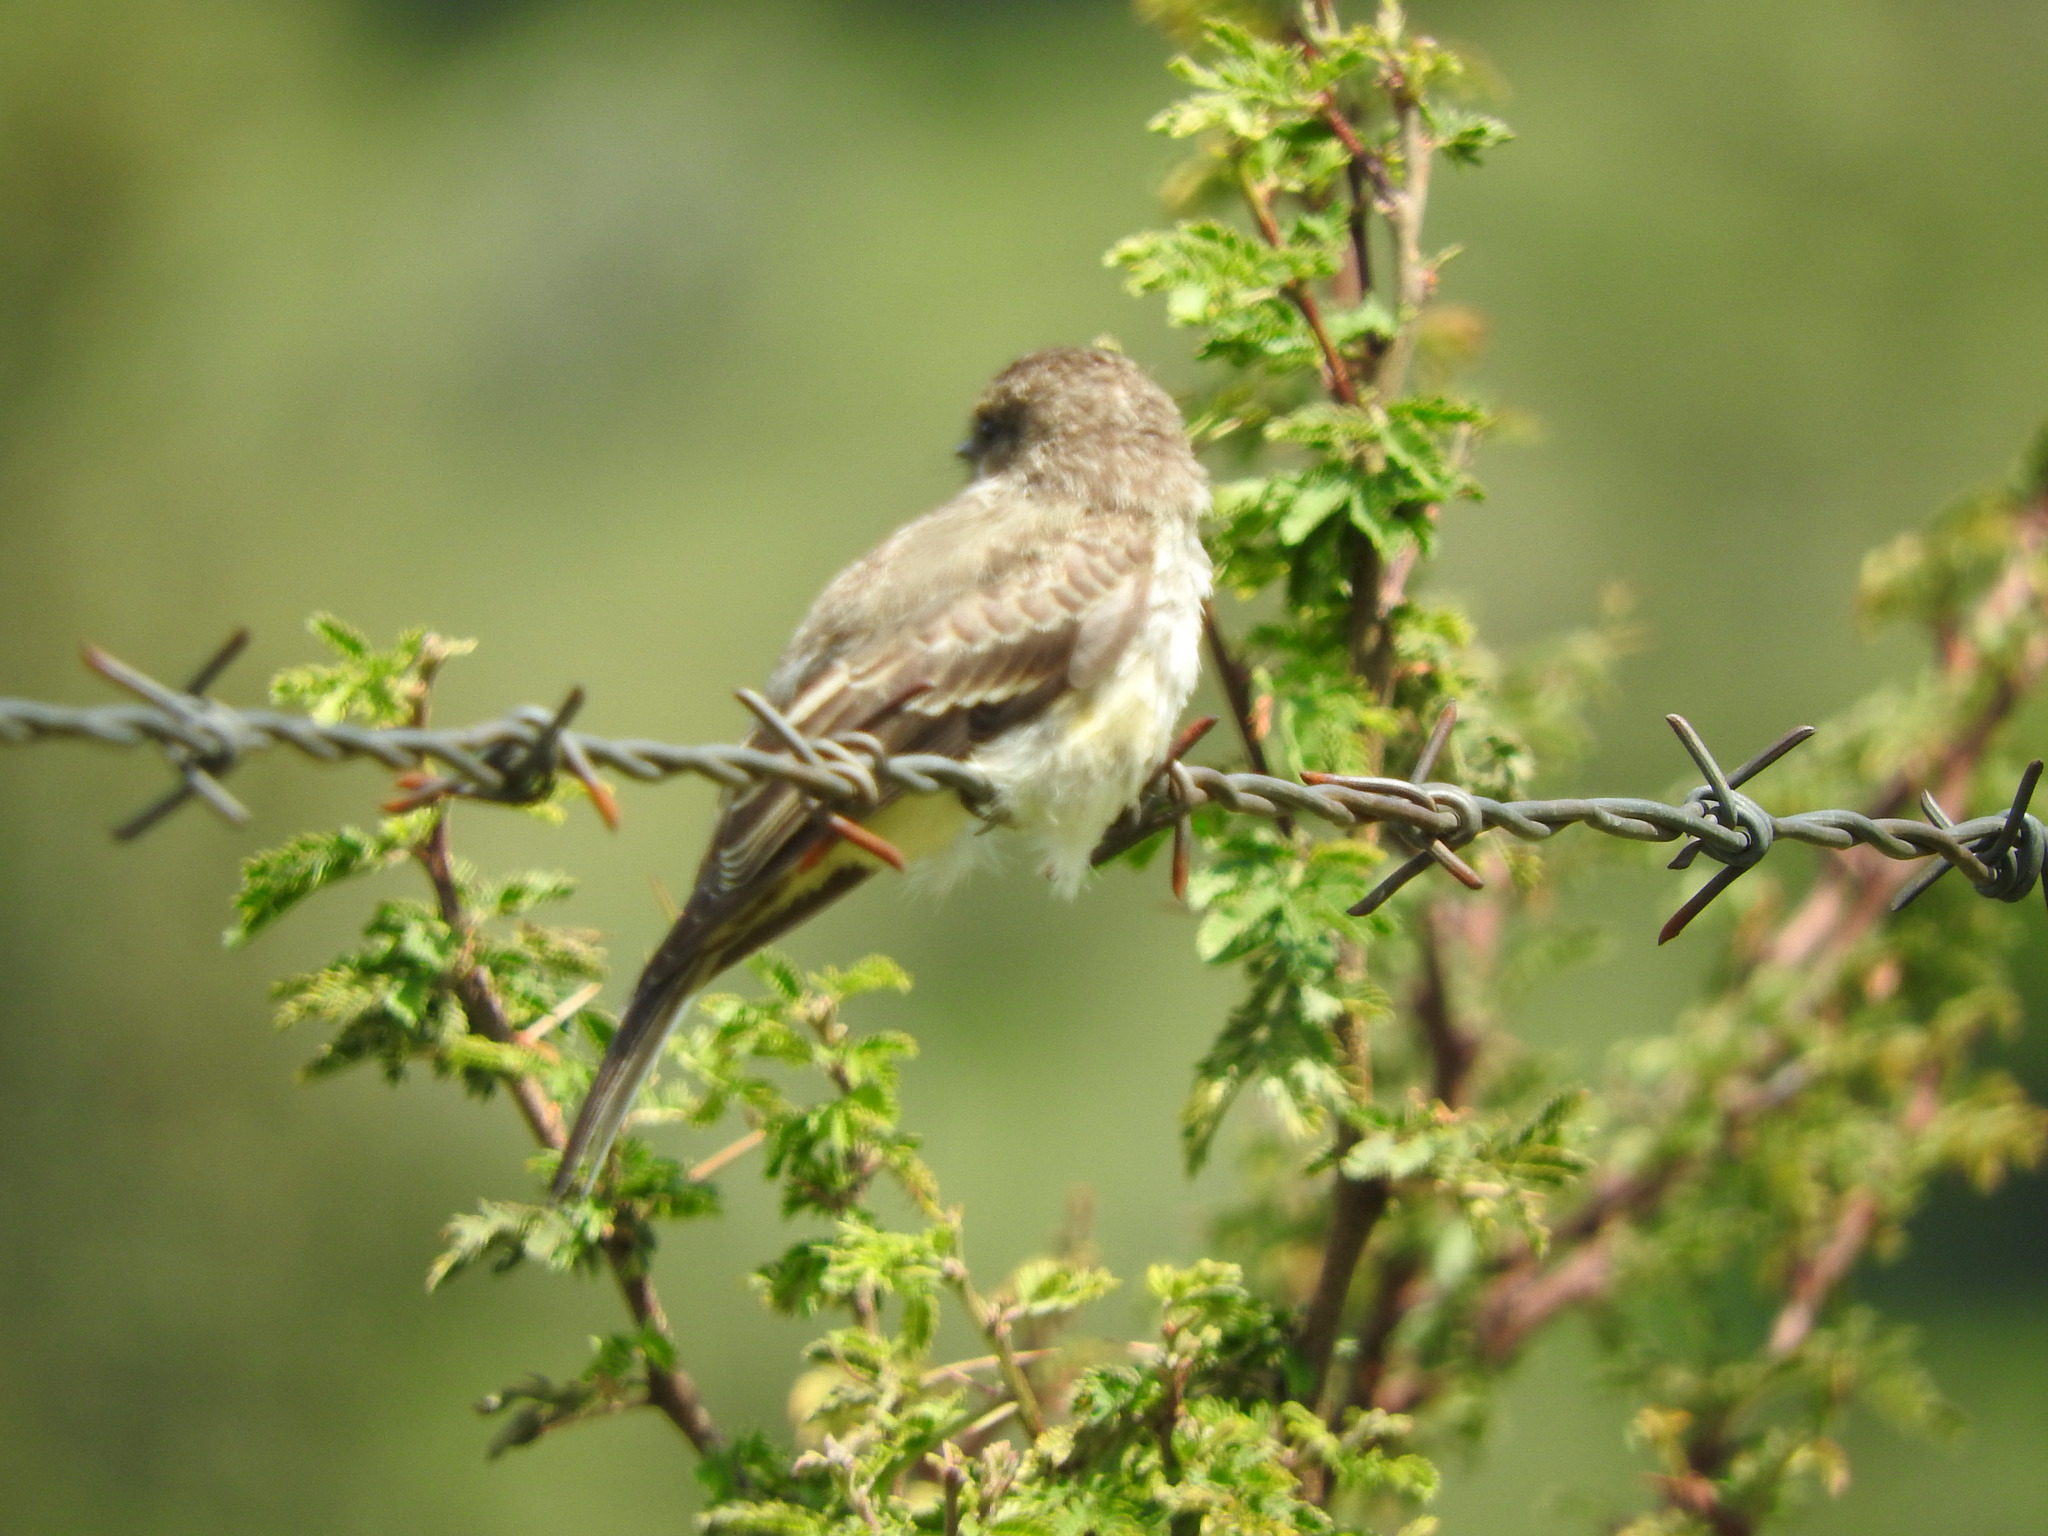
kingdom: Animalia
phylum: Chordata
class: Aves
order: Passeriformes
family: Tyrannidae
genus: Pyrocephalus
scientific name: Pyrocephalus rubinus
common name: Vermilion flycatcher
